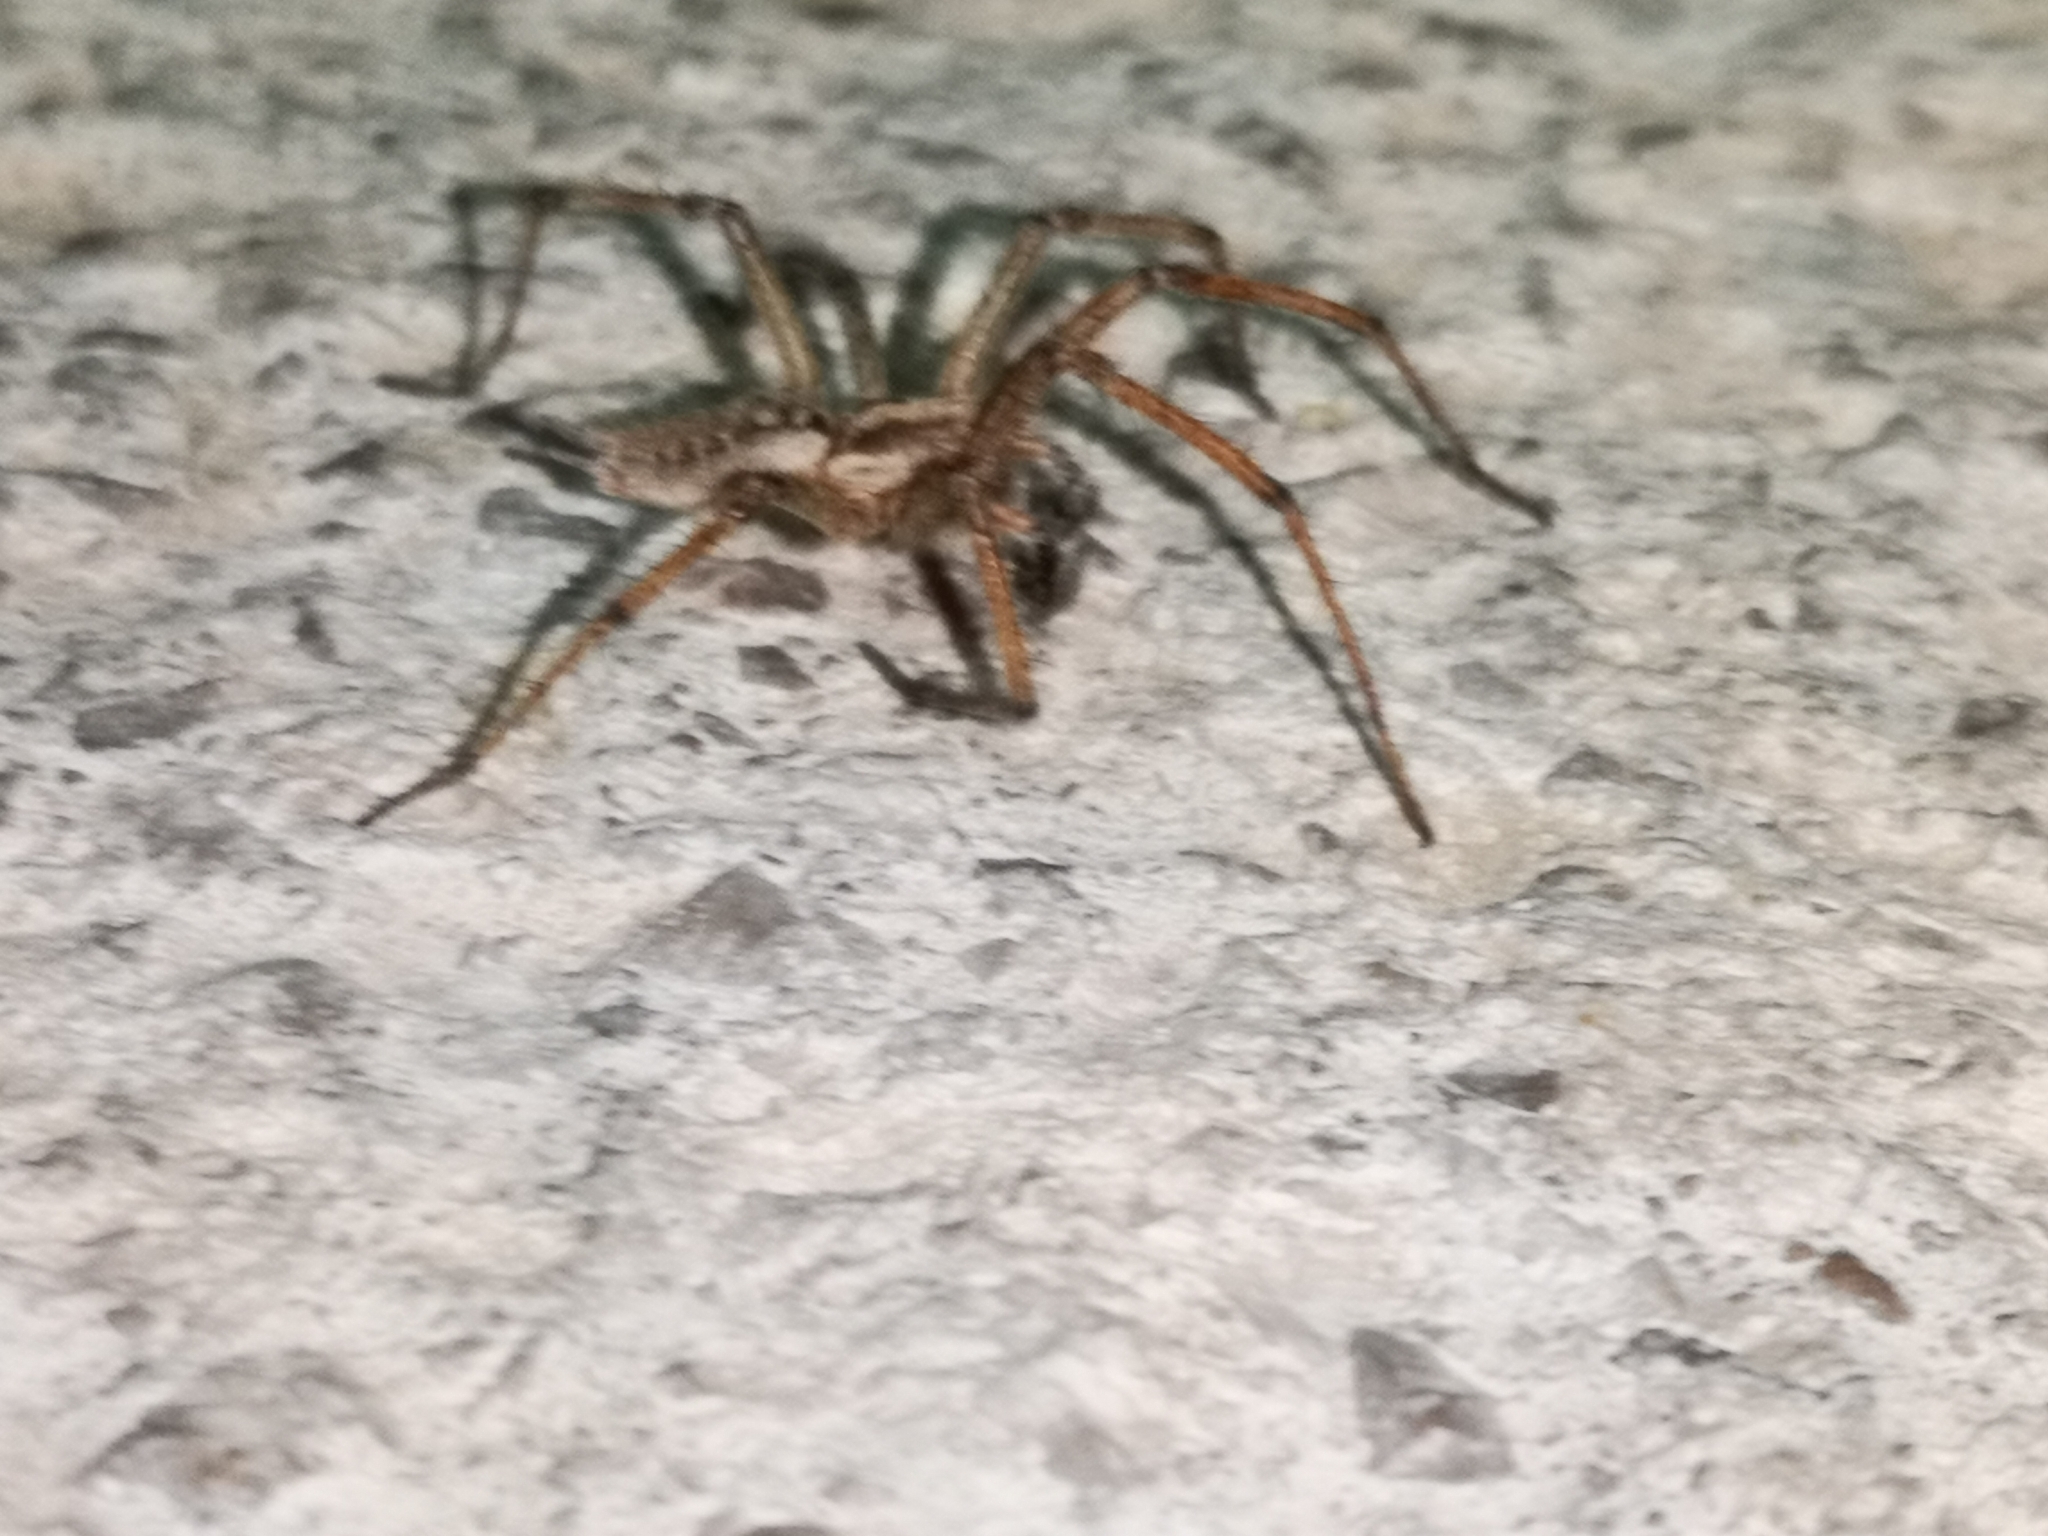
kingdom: Animalia
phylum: Arthropoda
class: Arachnida
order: Araneae
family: Agelenidae
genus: Agelena
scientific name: Agelena labyrinthica
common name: Labyrinth spider
